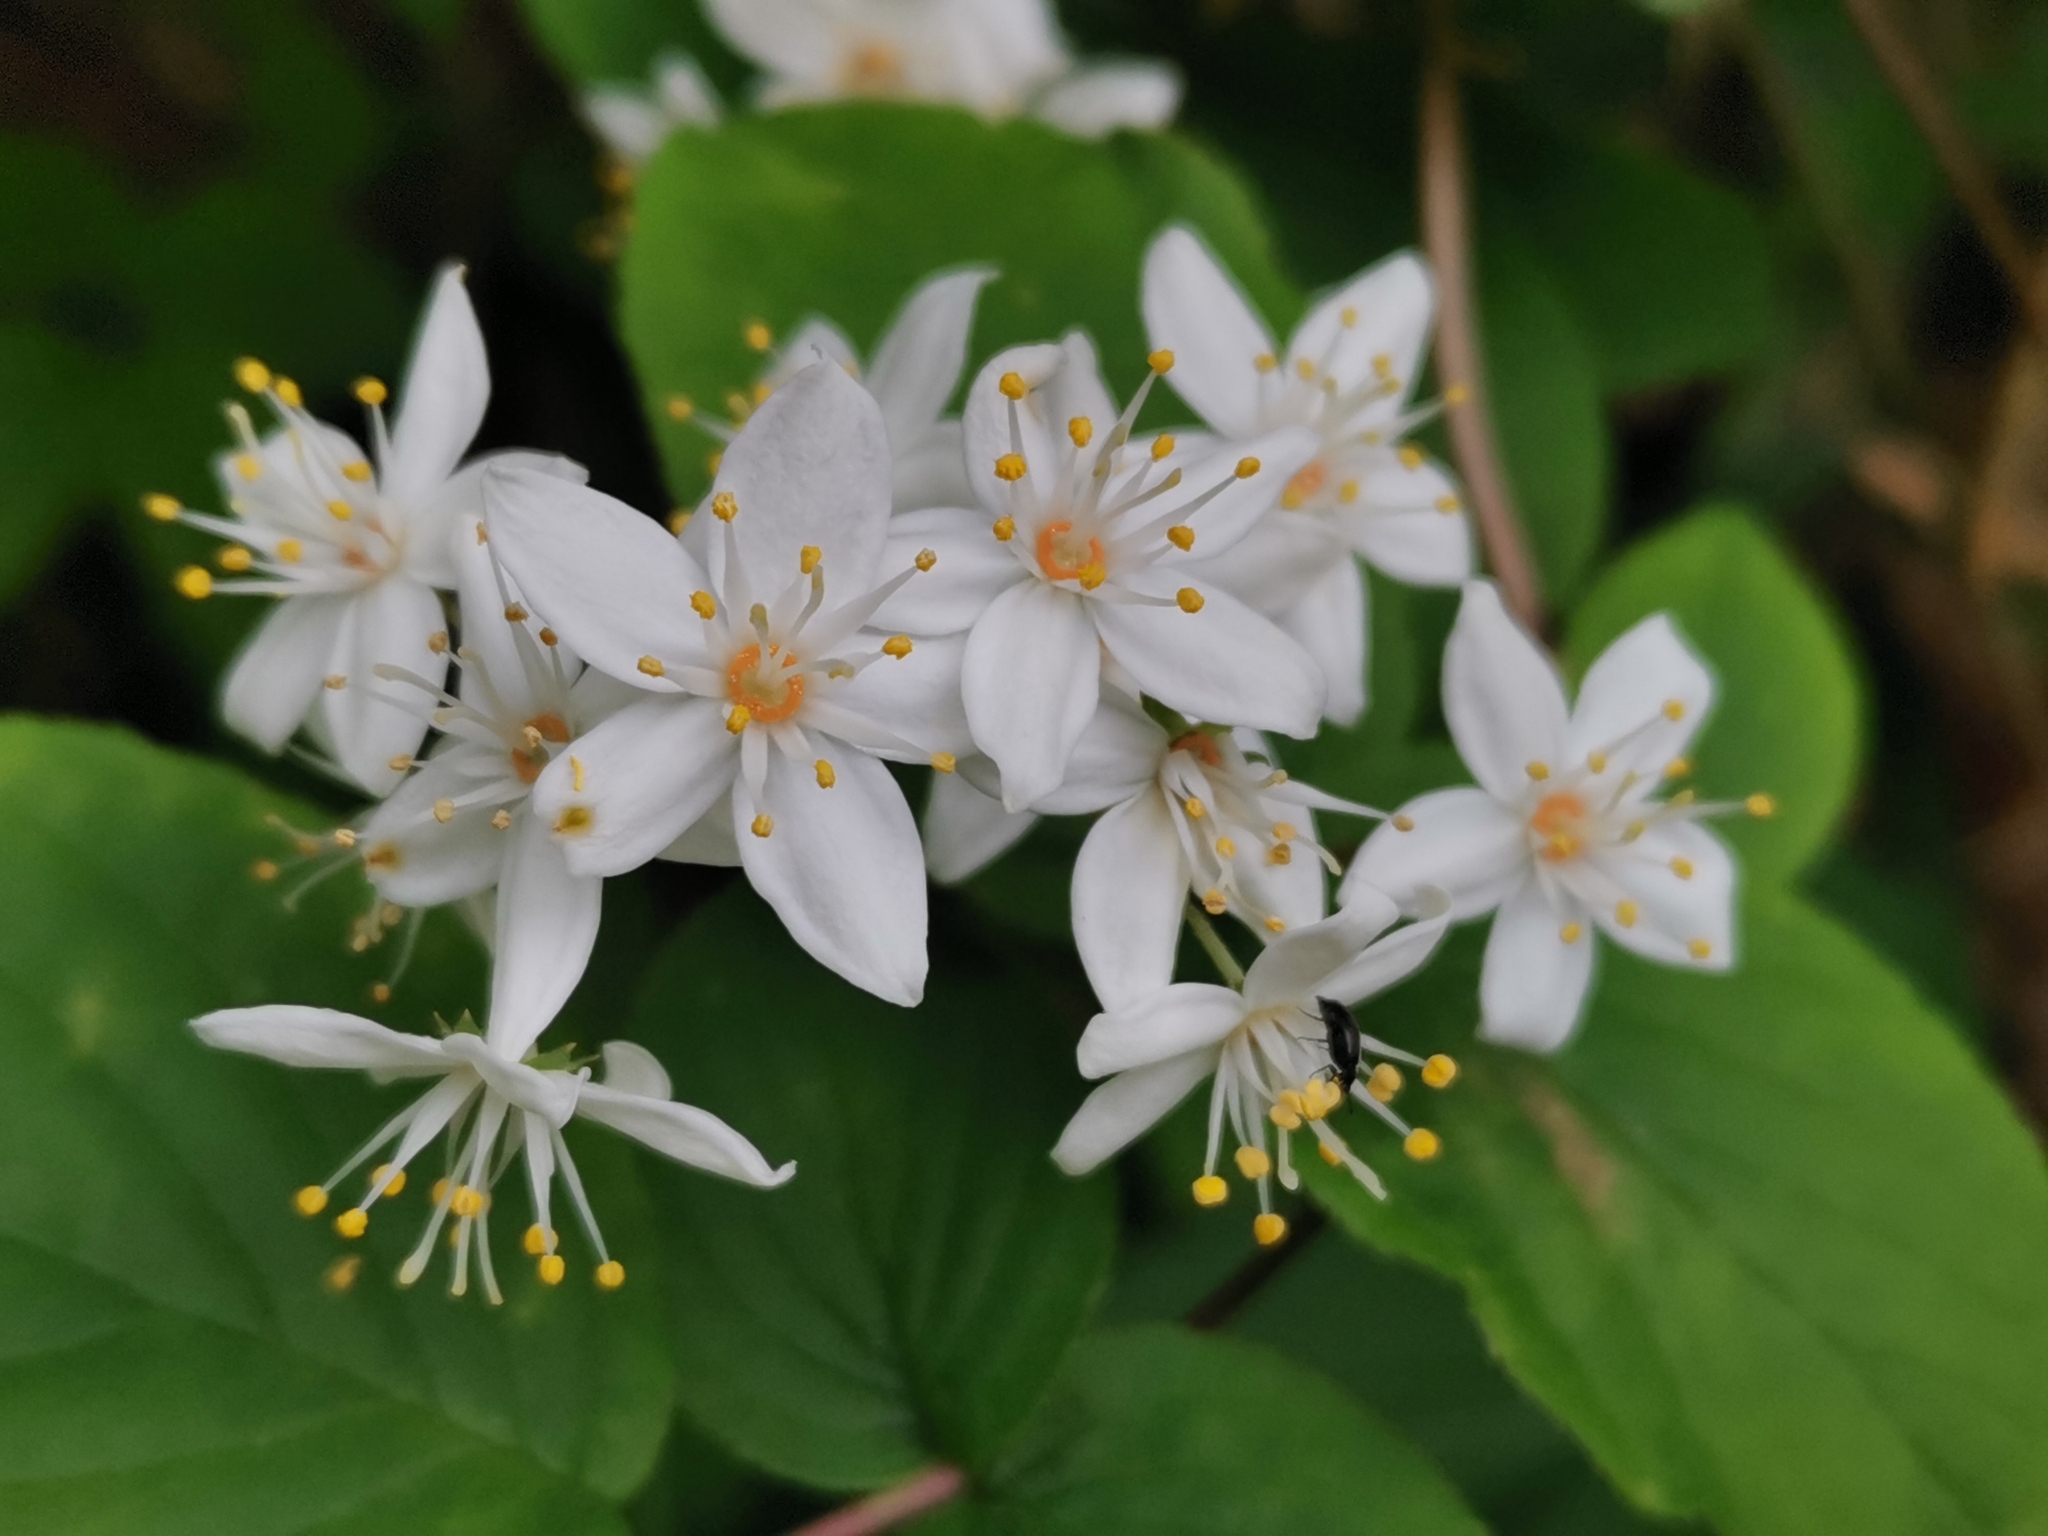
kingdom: Plantae
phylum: Tracheophyta
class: Magnoliopsida
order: Cornales
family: Hydrangeaceae
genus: Deutzia
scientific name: Deutzia scabra
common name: Deutzia
